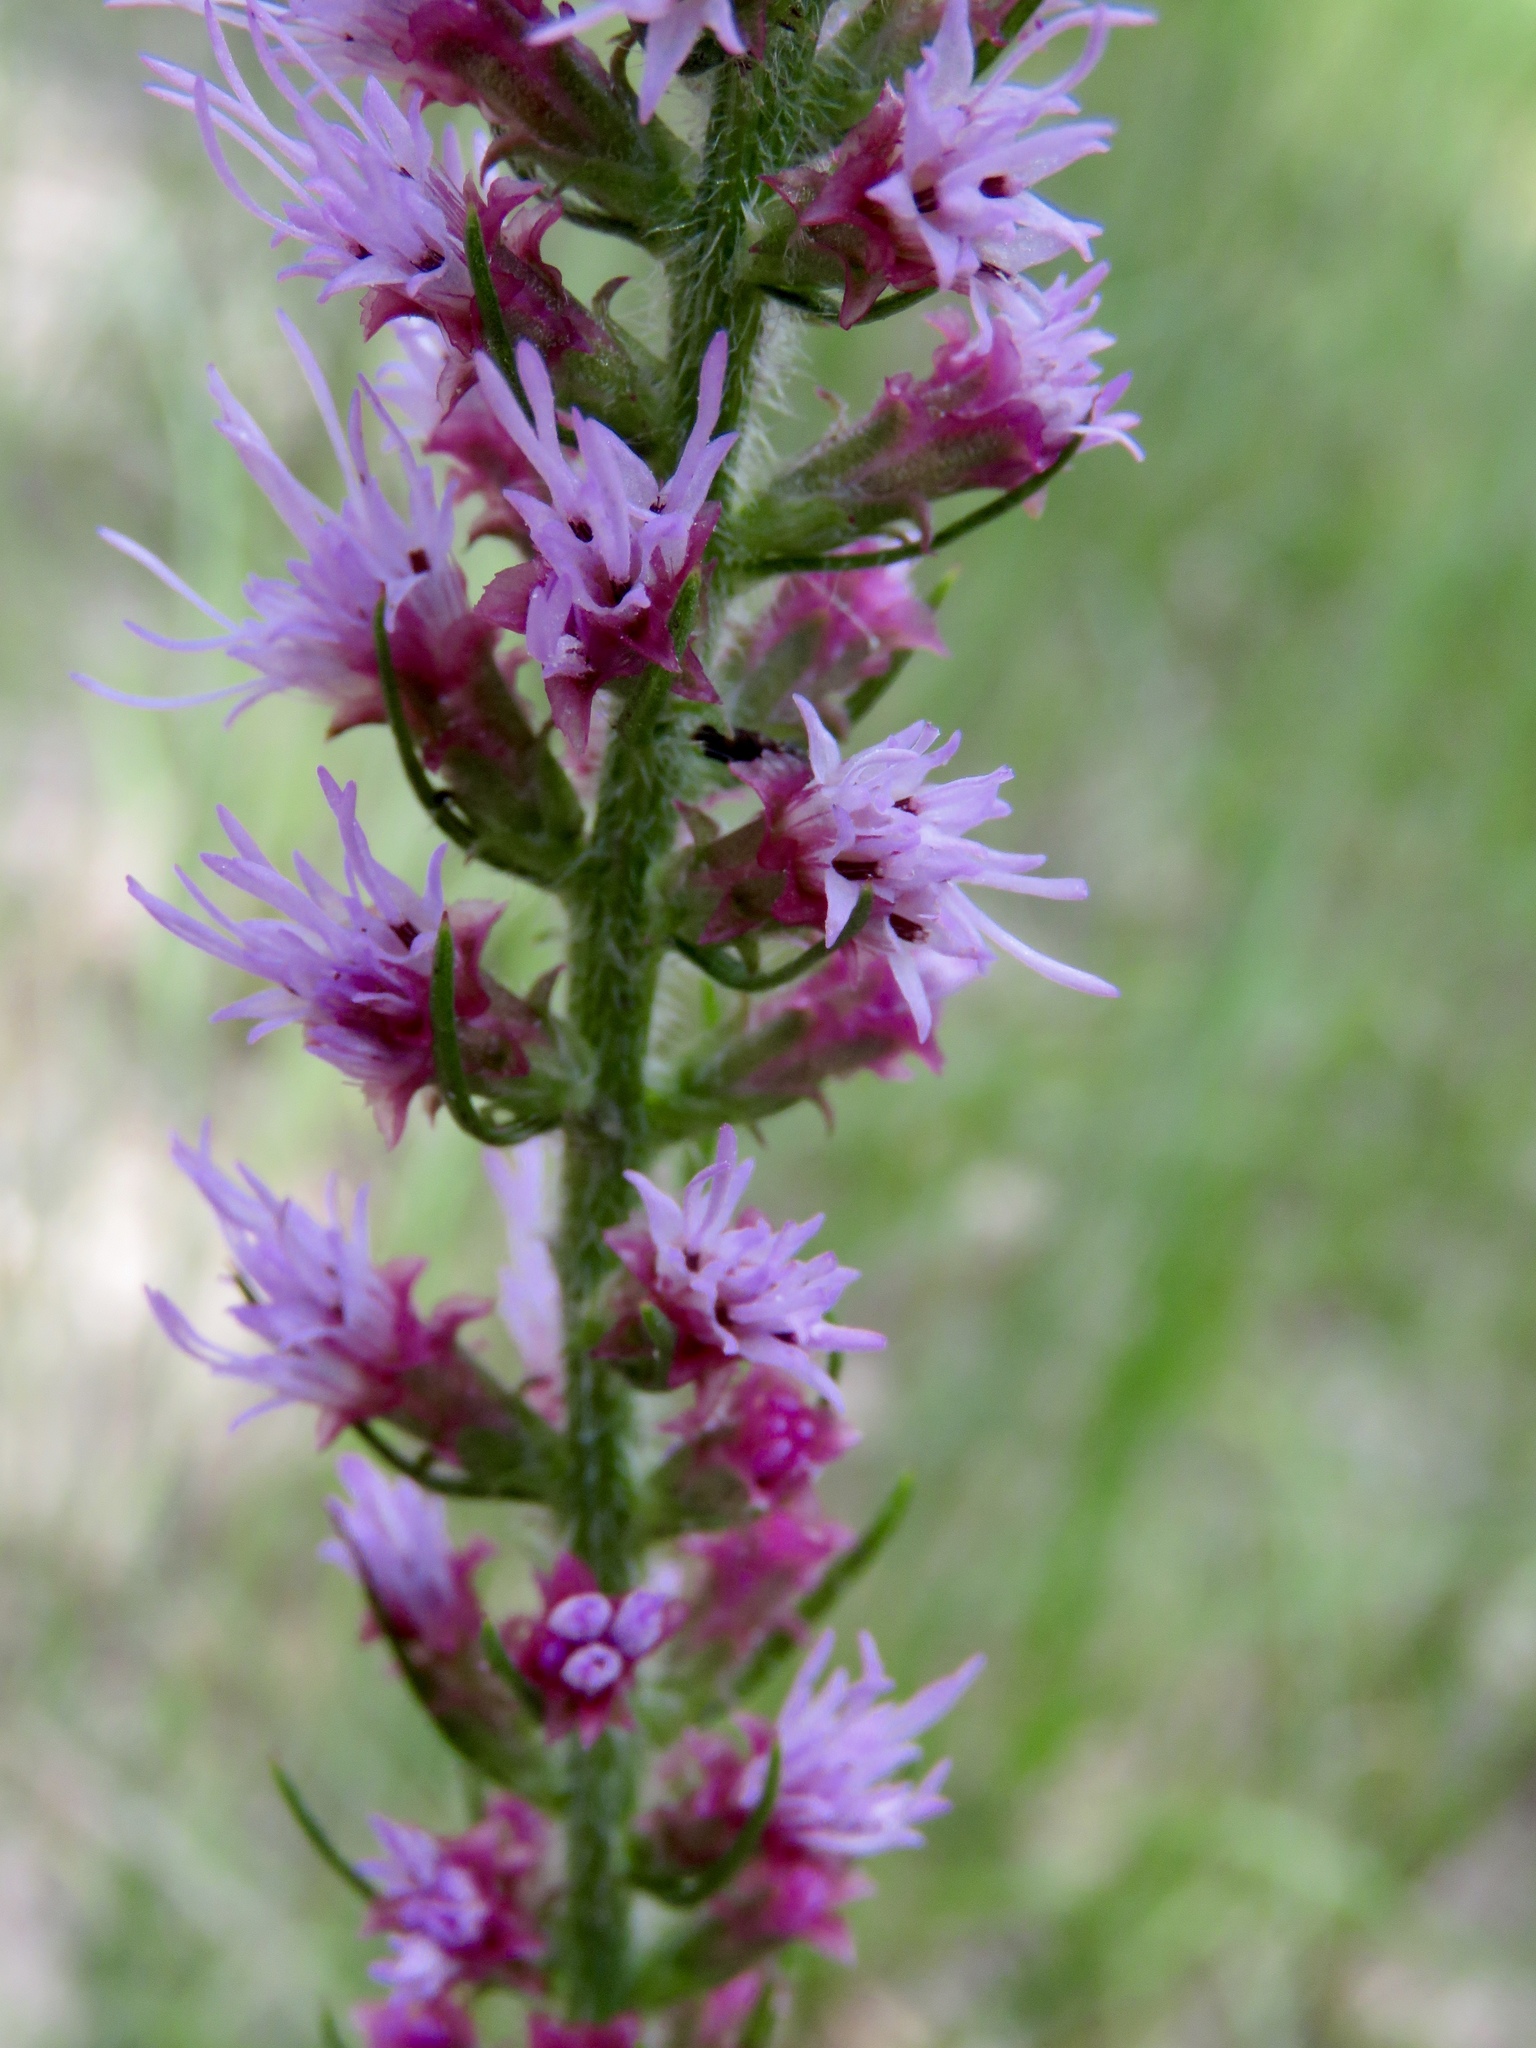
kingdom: Plantae
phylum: Tracheophyta
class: Magnoliopsida
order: Asterales
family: Asteraceae
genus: Liatris
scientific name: Liatris pycnostachya
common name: Cattail gayfeather
